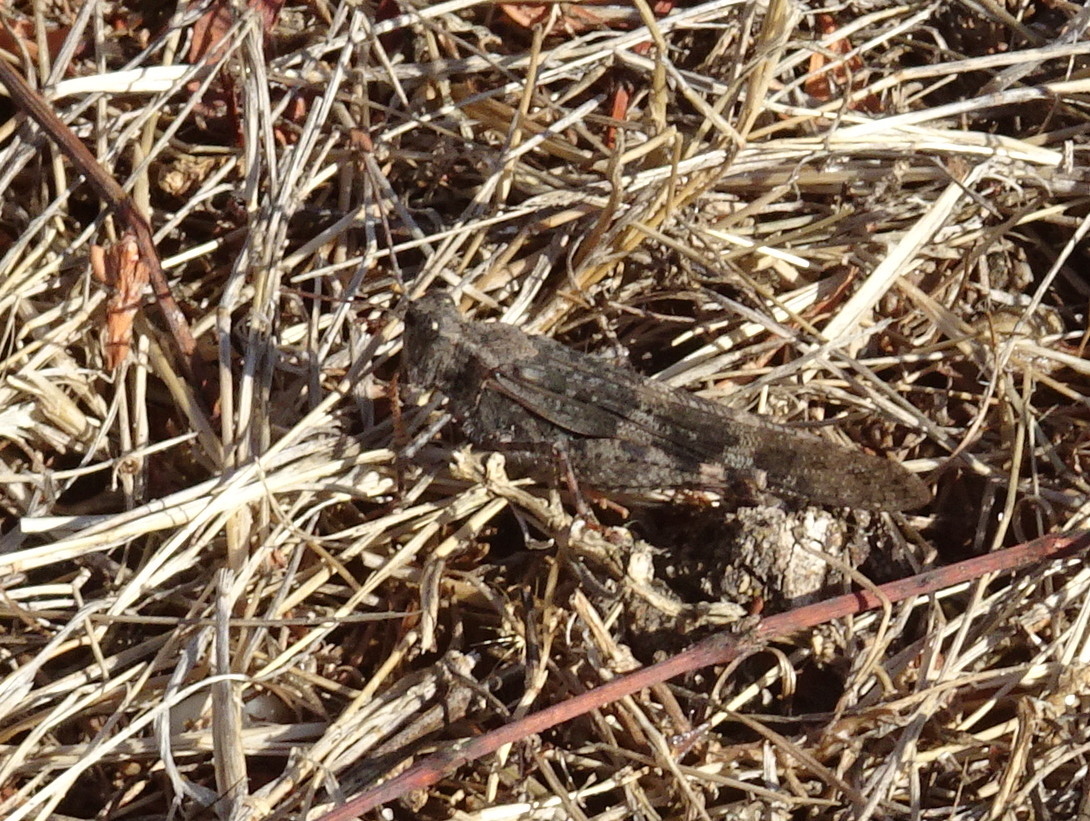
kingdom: Animalia
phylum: Arthropoda
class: Insecta
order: Orthoptera
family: Acrididae
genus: Trimerotropis
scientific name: Trimerotropis pallidipennis
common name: Pallid-winged grasshopper
